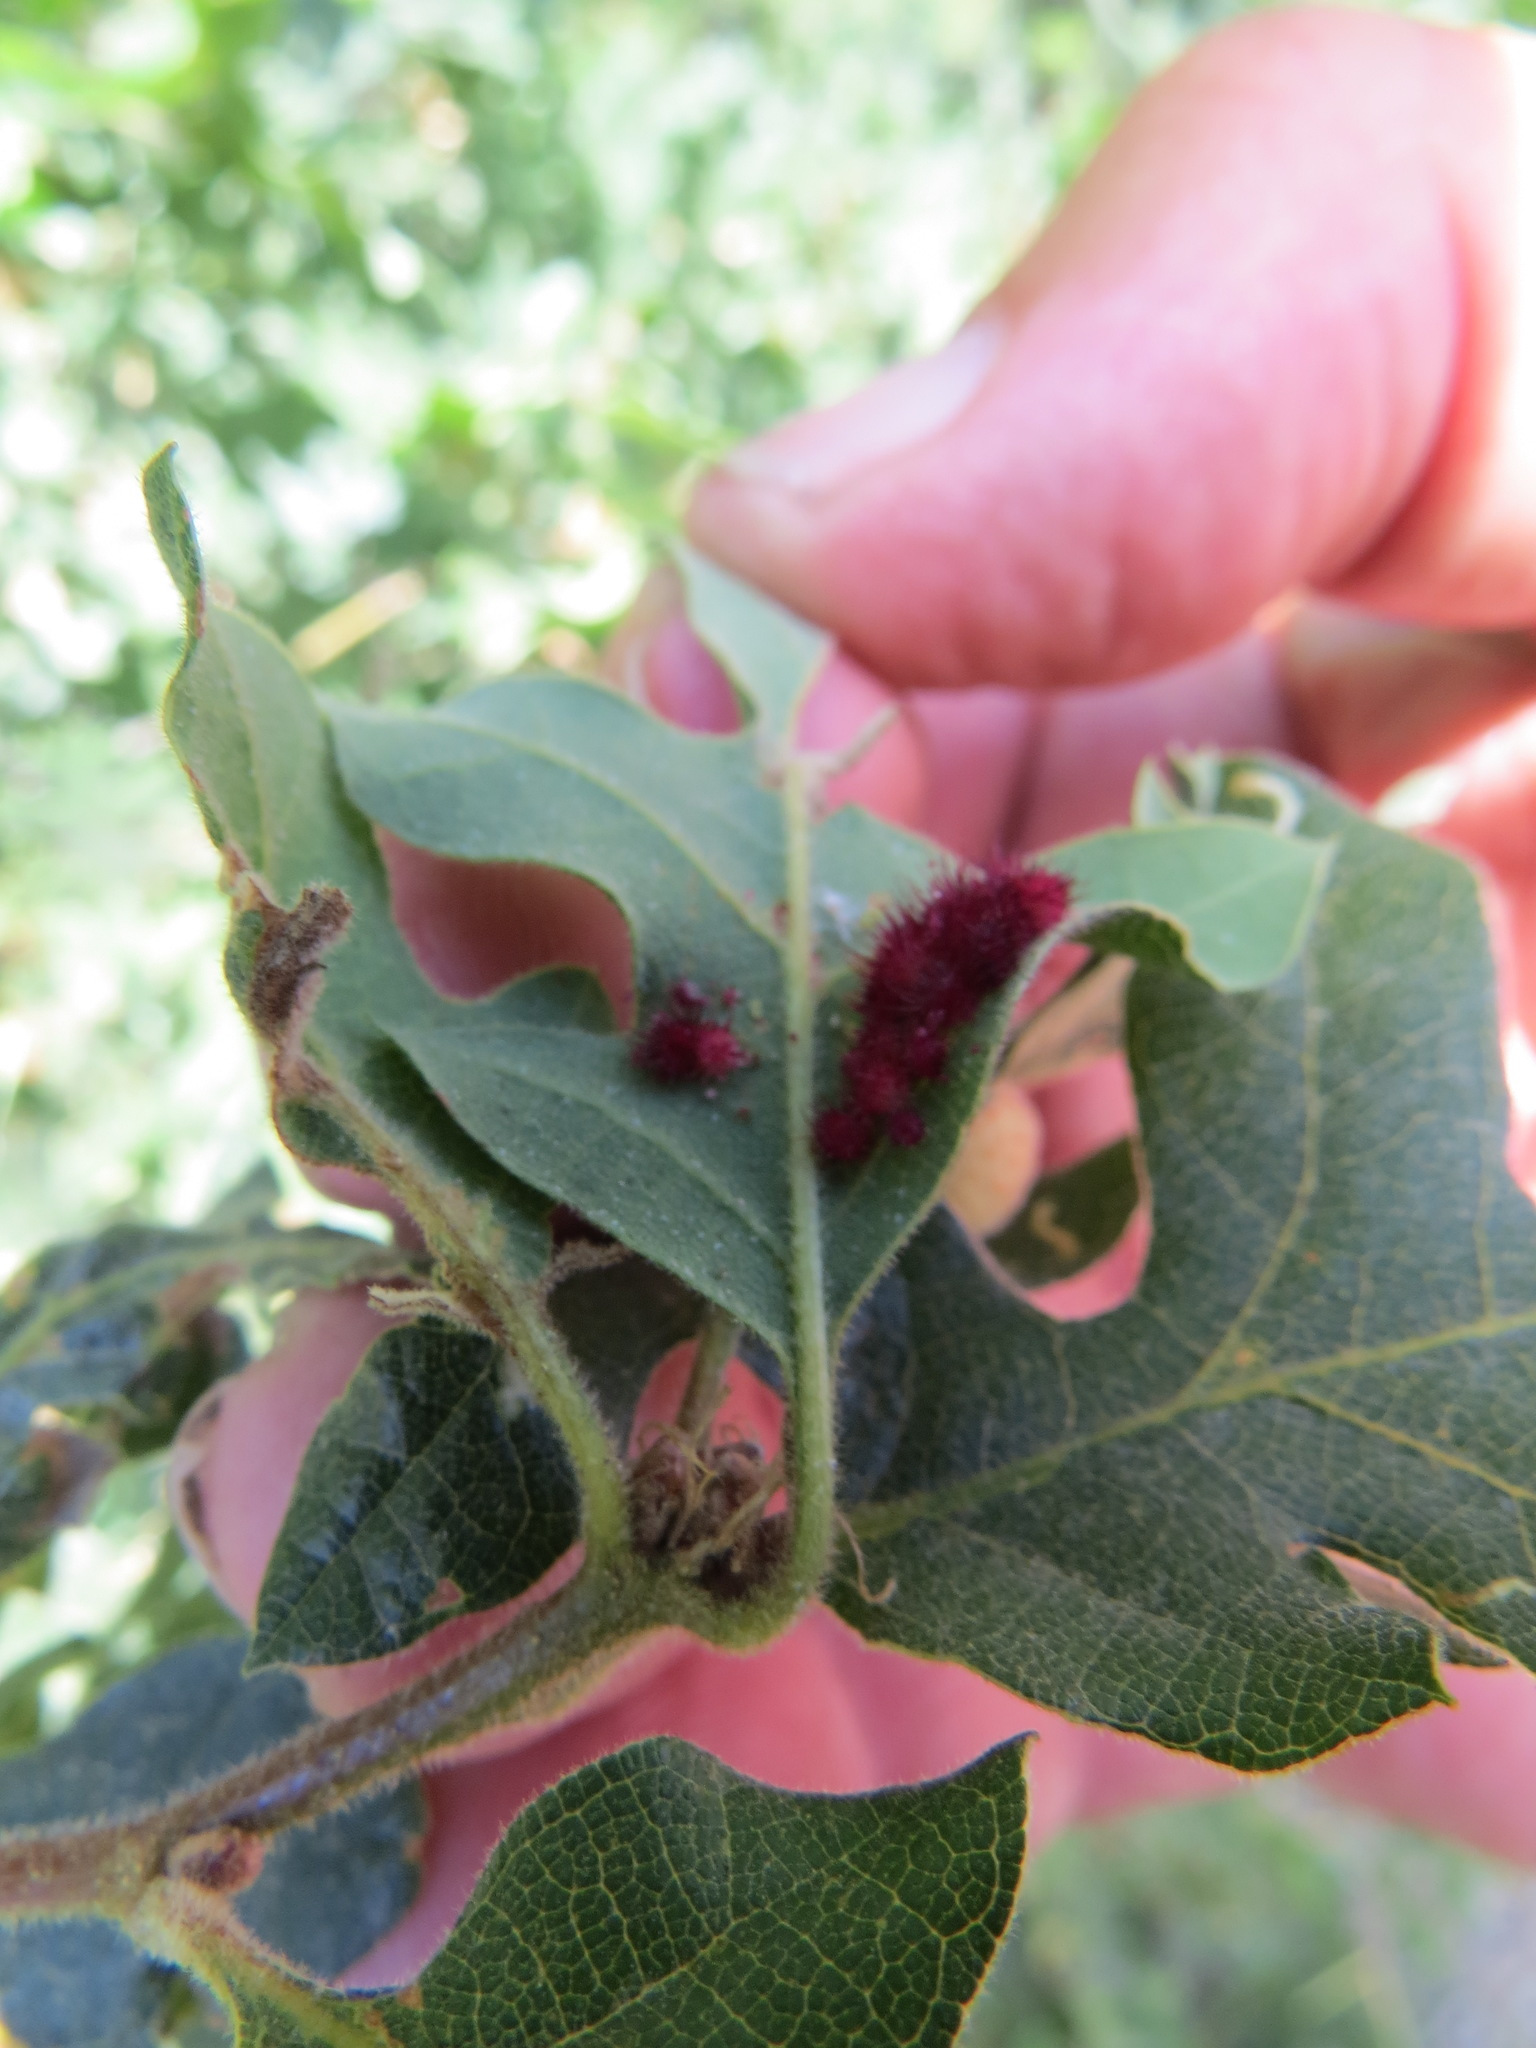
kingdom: Animalia
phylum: Arthropoda
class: Insecta
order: Hymenoptera
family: Cynipidae
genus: Andricus
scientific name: Andricus
